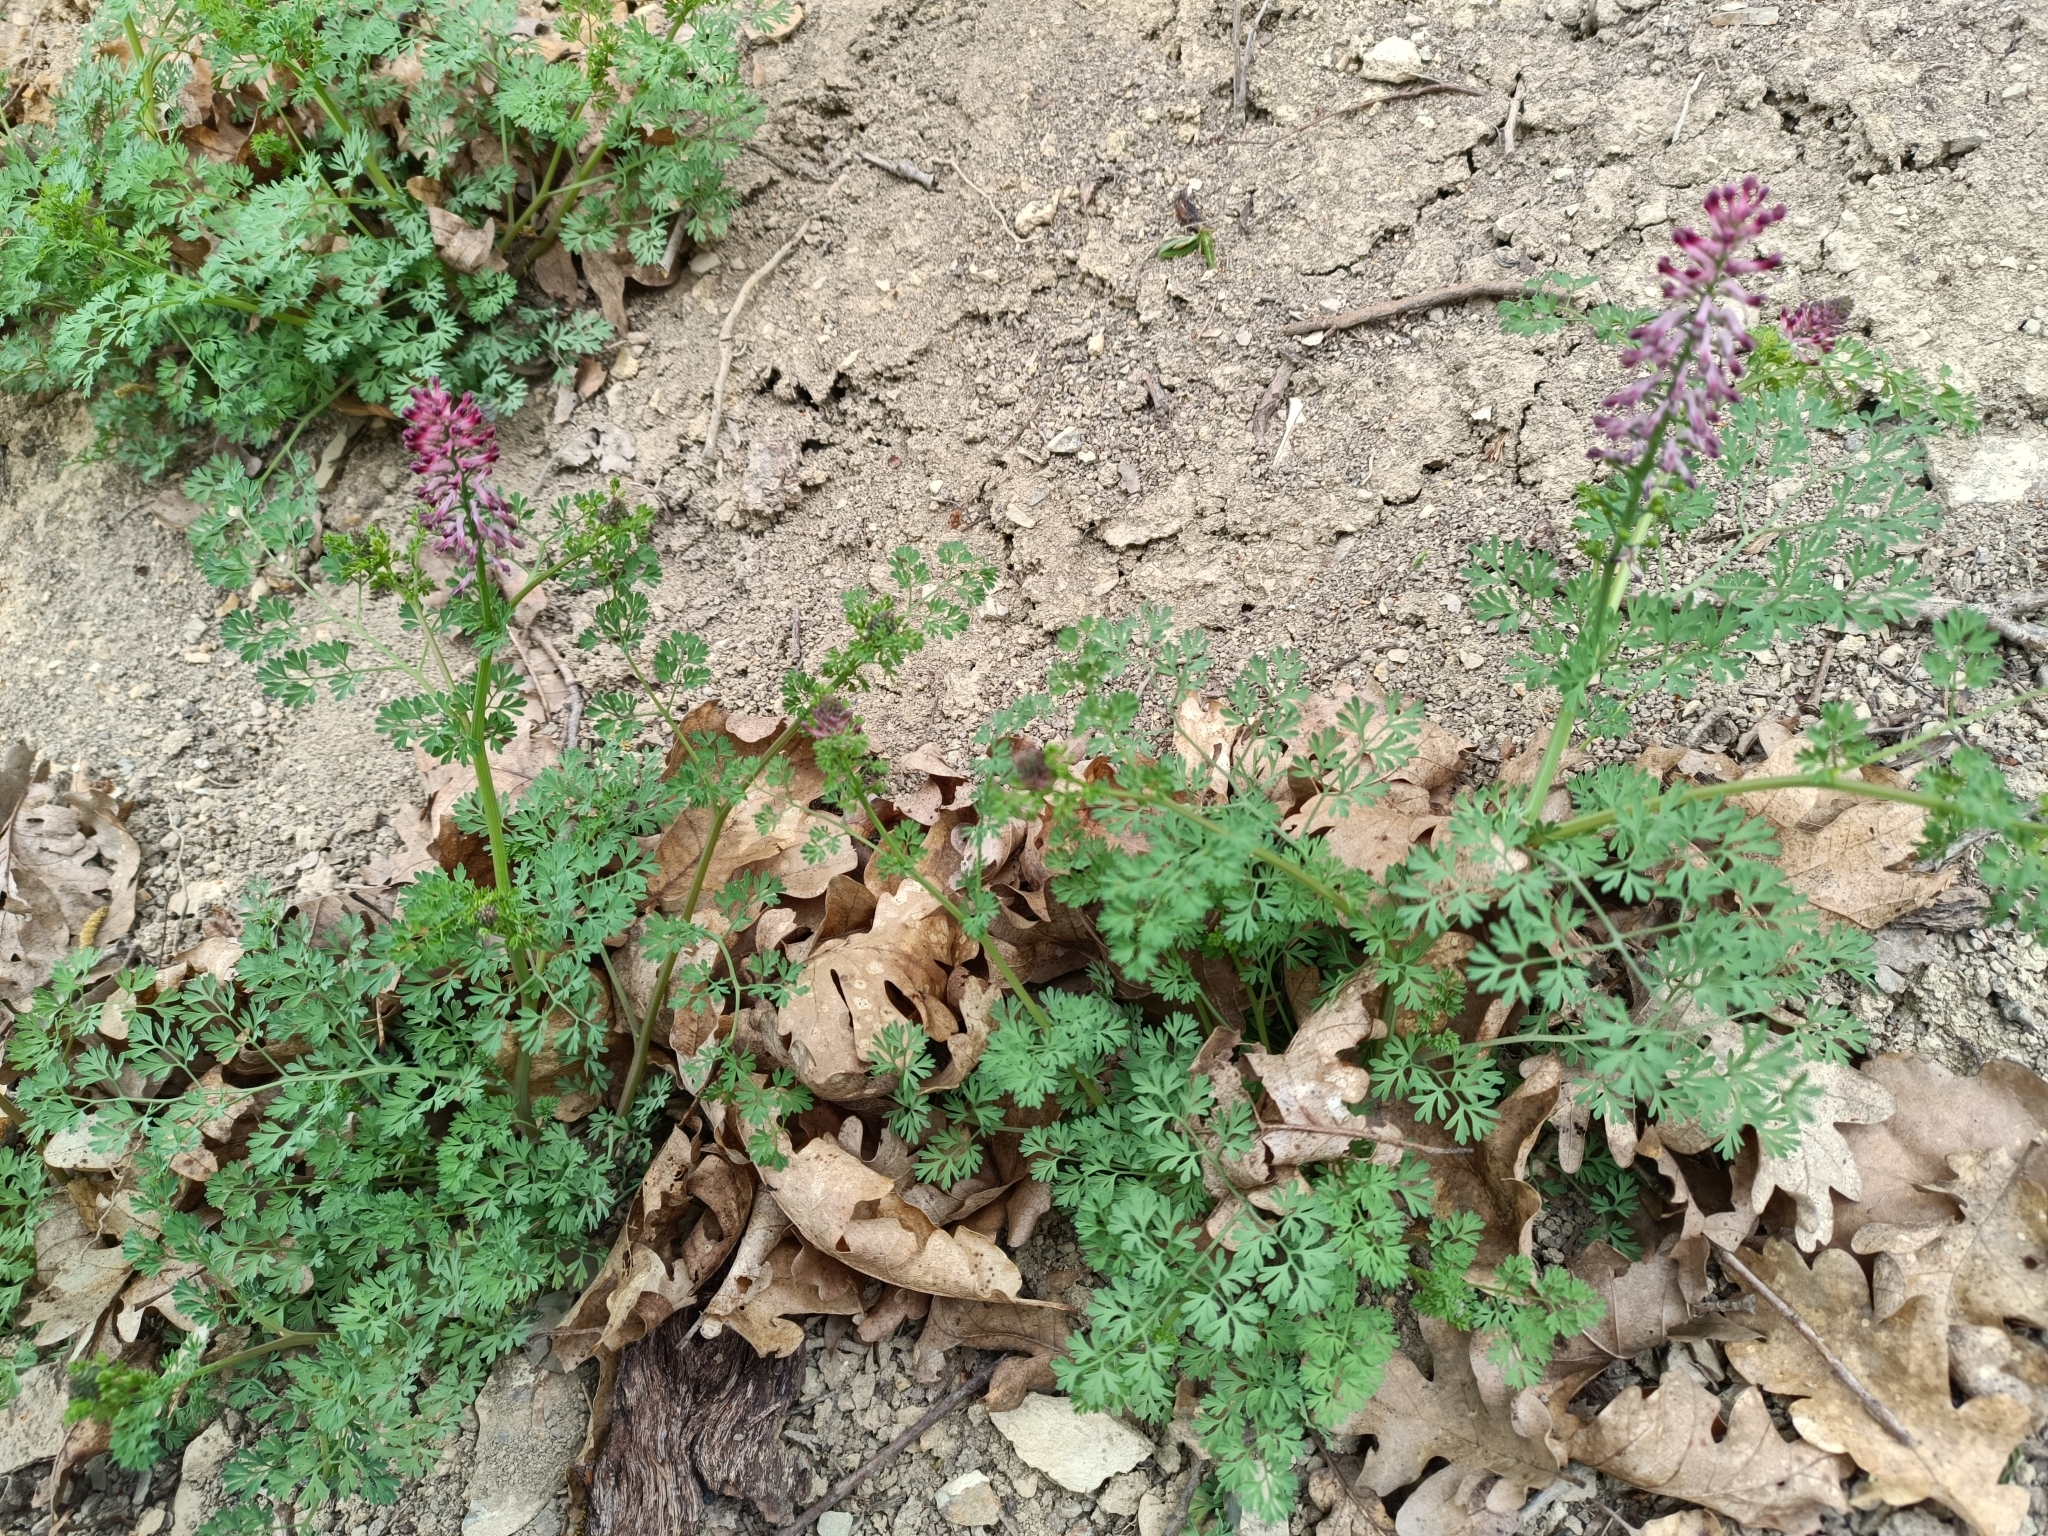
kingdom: Plantae
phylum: Tracheophyta
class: Magnoliopsida
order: Ranunculales
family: Papaveraceae
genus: Fumaria
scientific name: Fumaria officinalis
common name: Common fumitory
